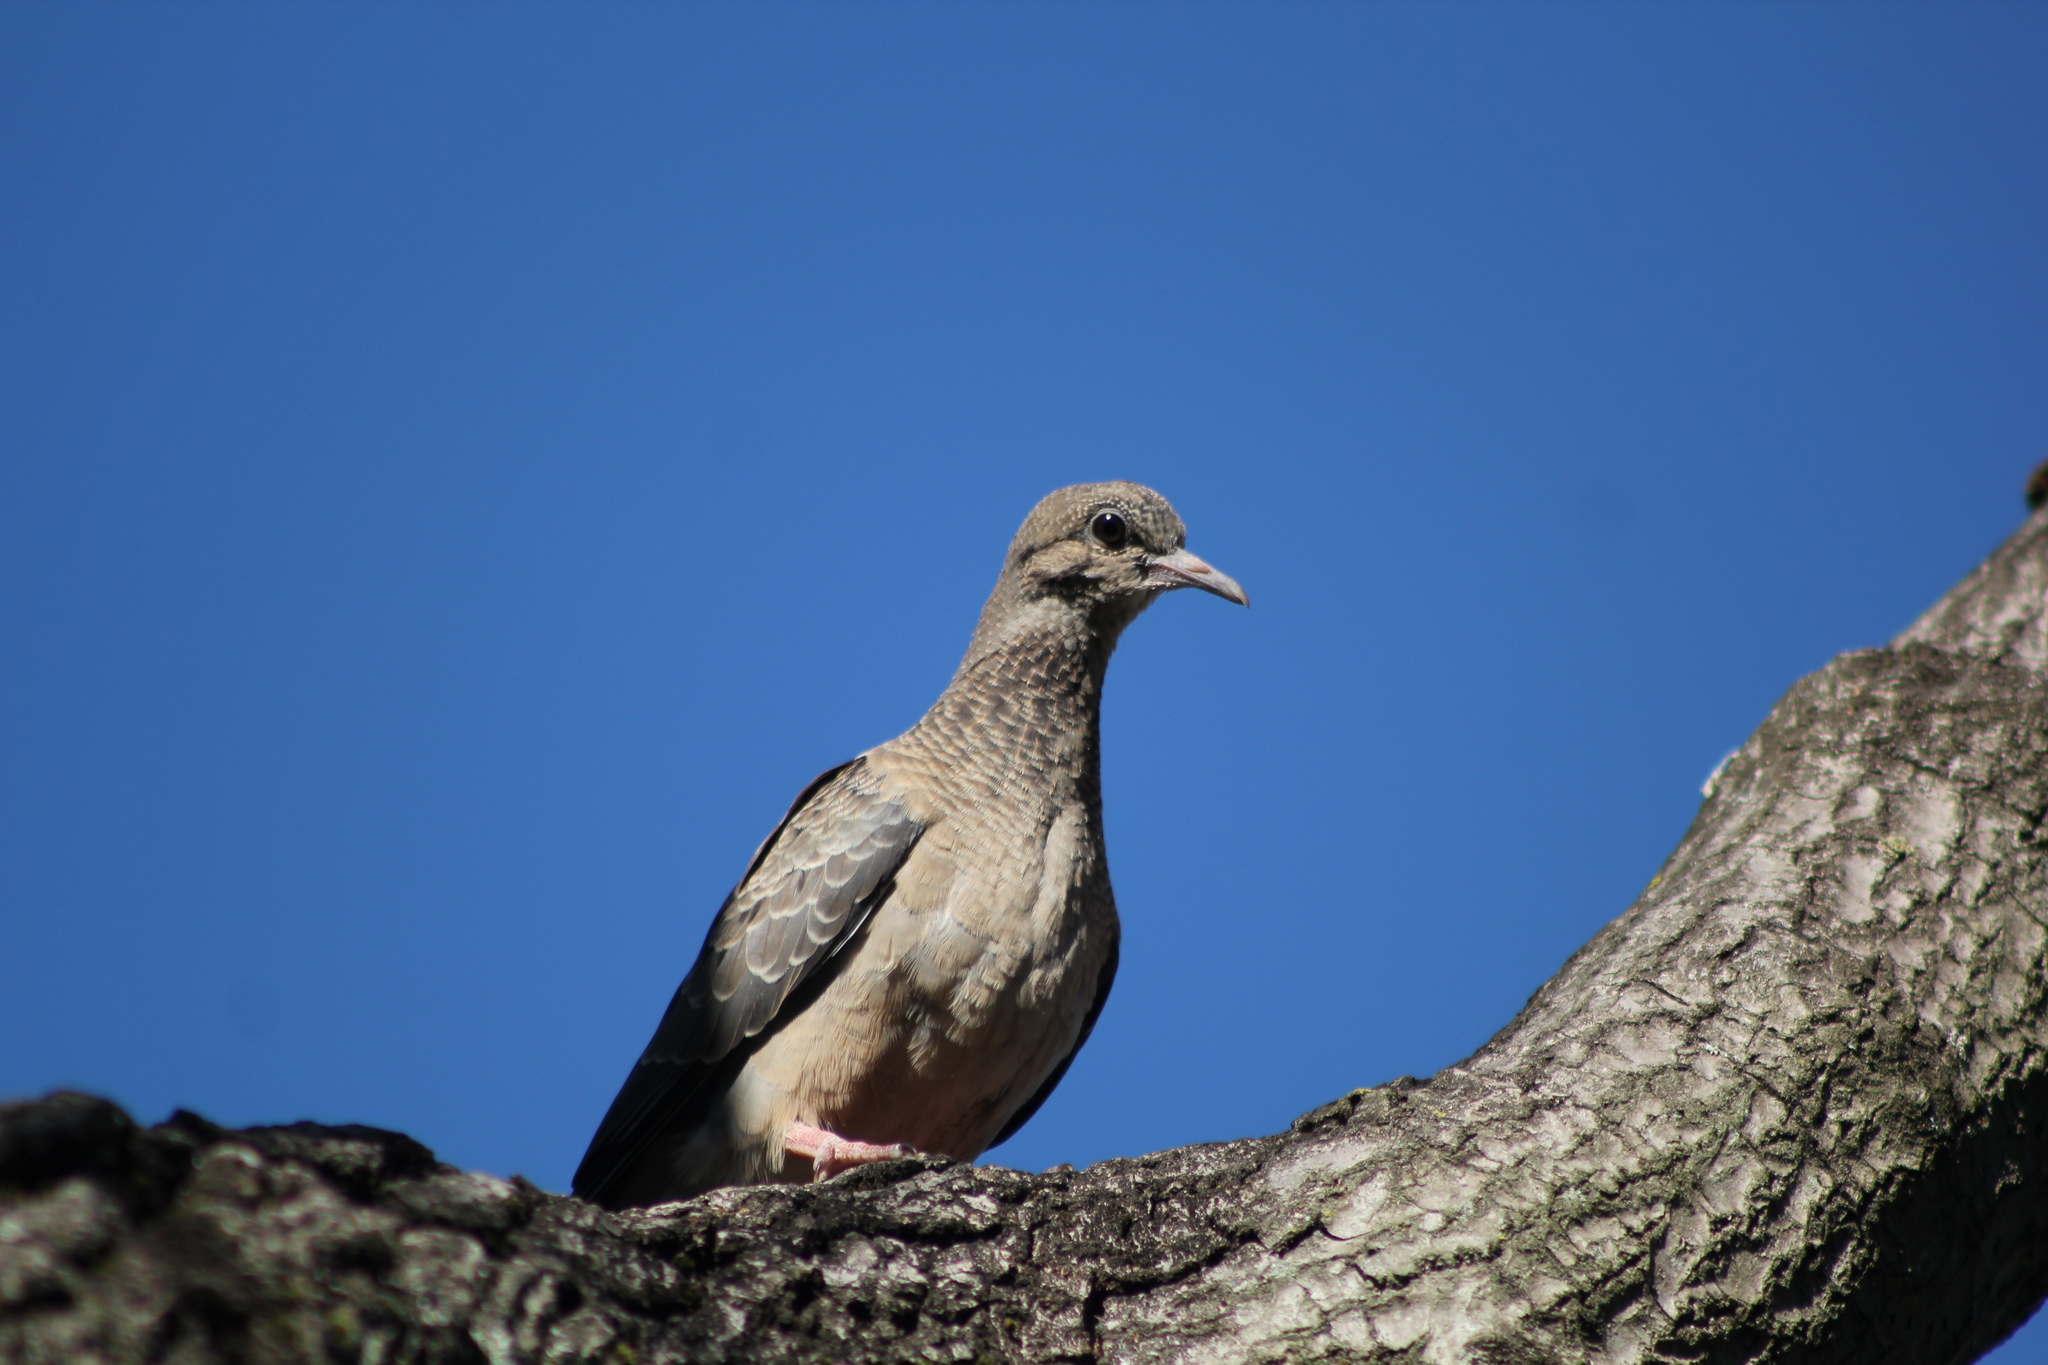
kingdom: Animalia
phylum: Chordata
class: Aves
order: Columbiformes
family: Columbidae
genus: Zenaida
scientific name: Zenaida auriculata
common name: Eared dove
